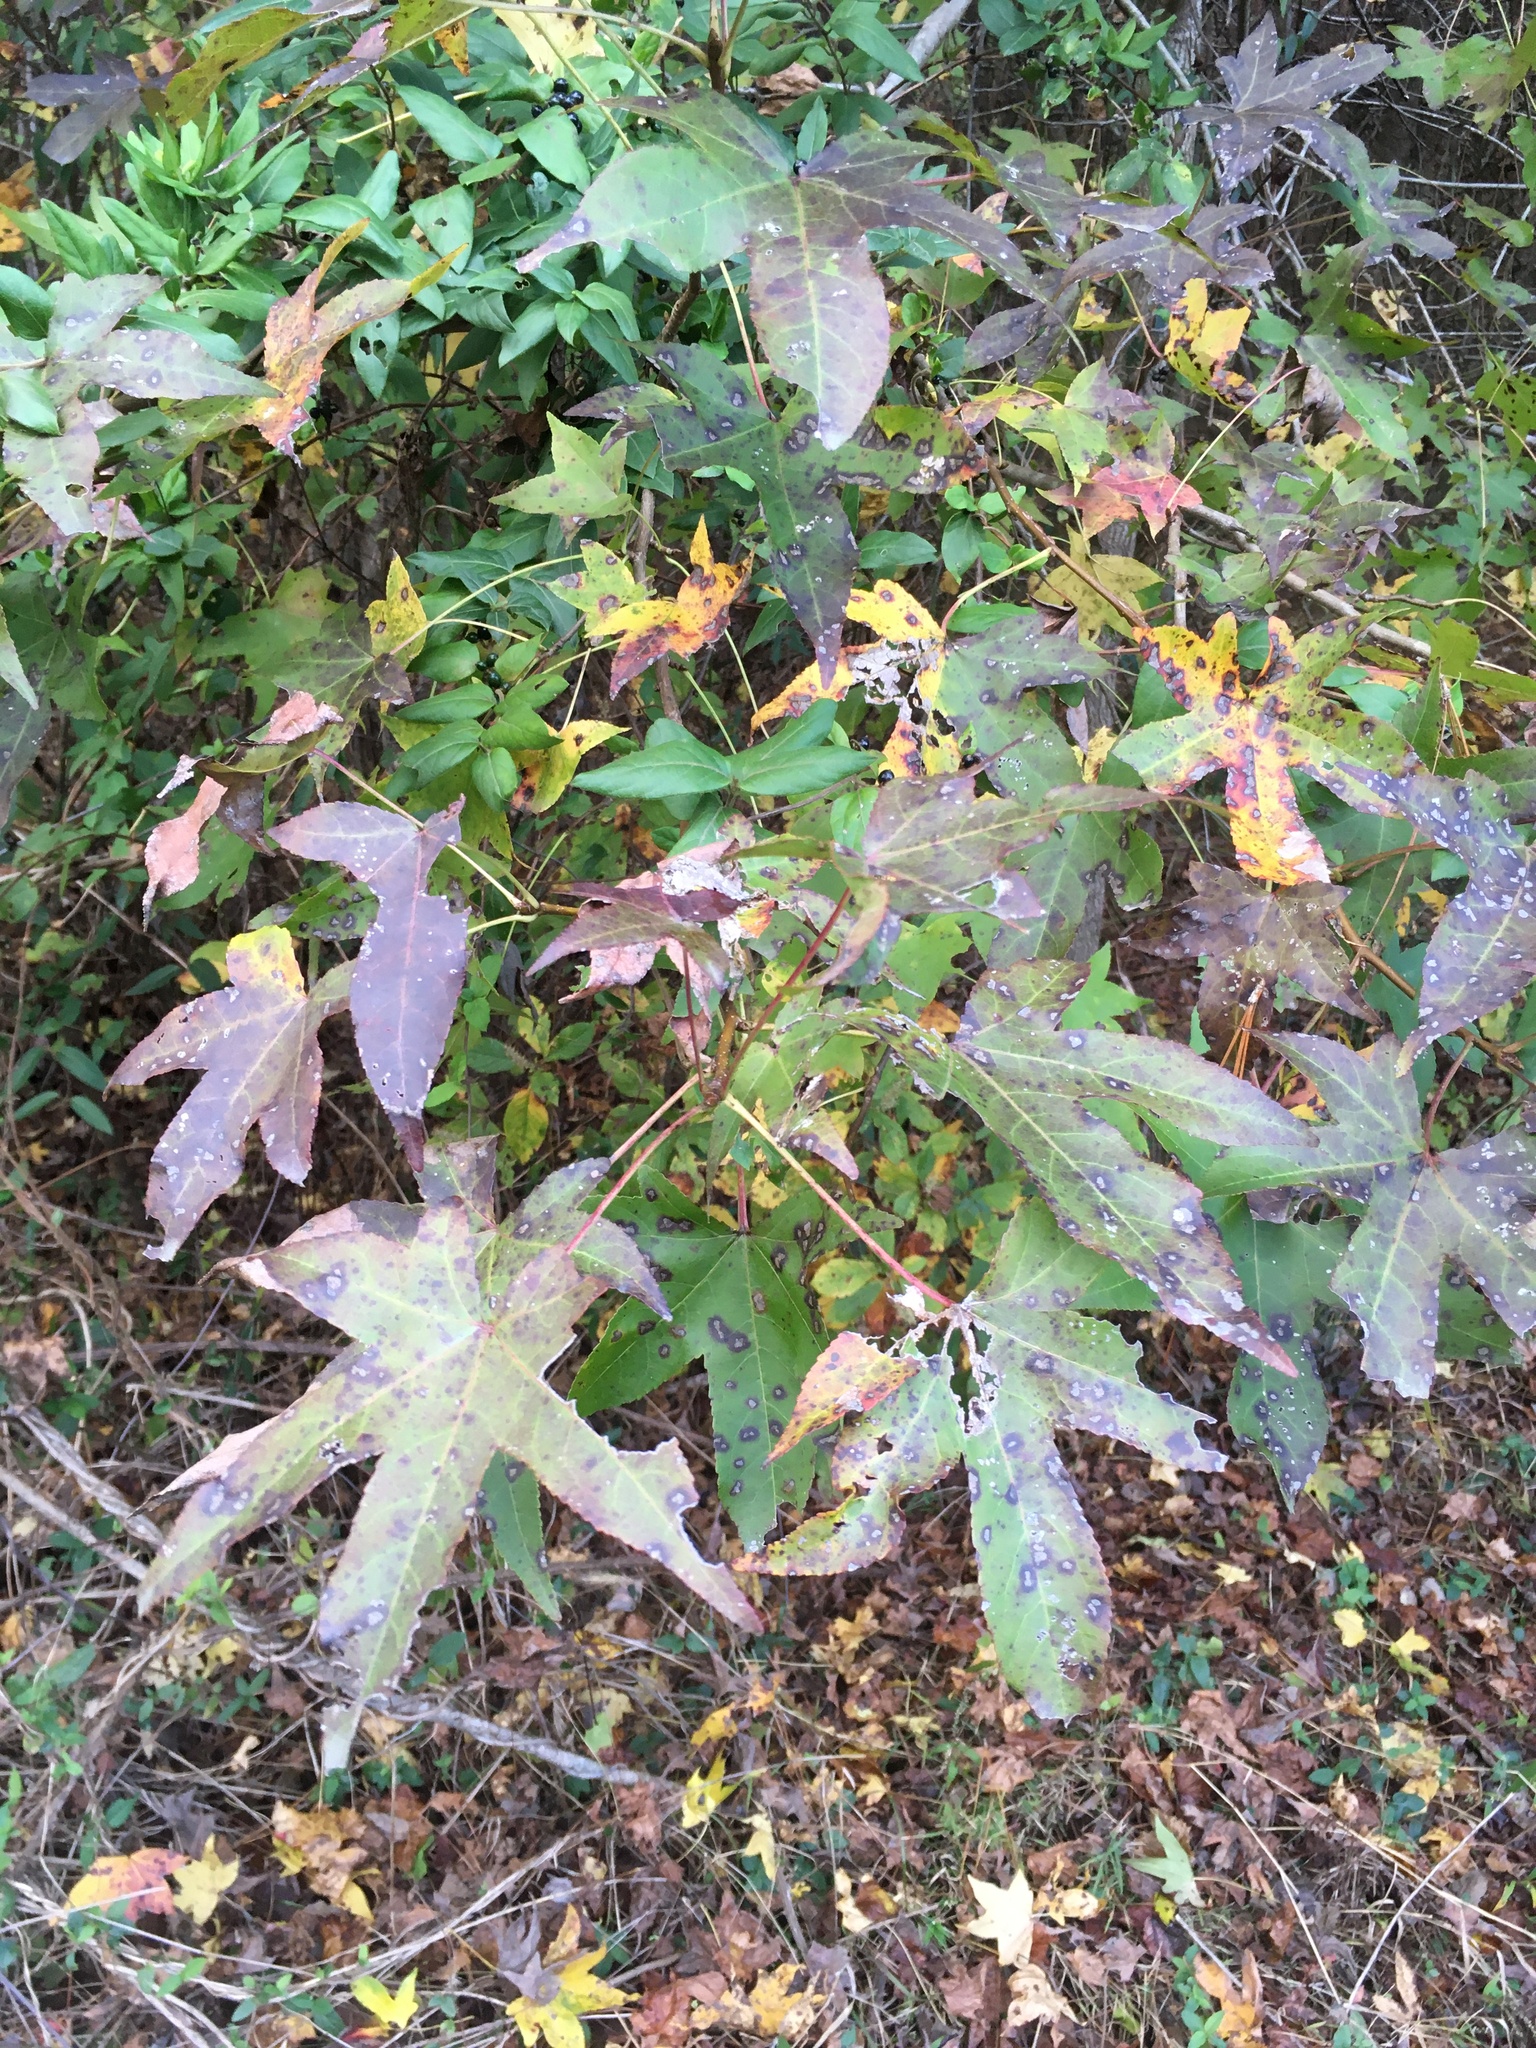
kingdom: Plantae
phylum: Tracheophyta
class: Magnoliopsida
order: Saxifragales
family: Altingiaceae
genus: Liquidambar
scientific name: Liquidambar styraciflua
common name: Sweet gum
